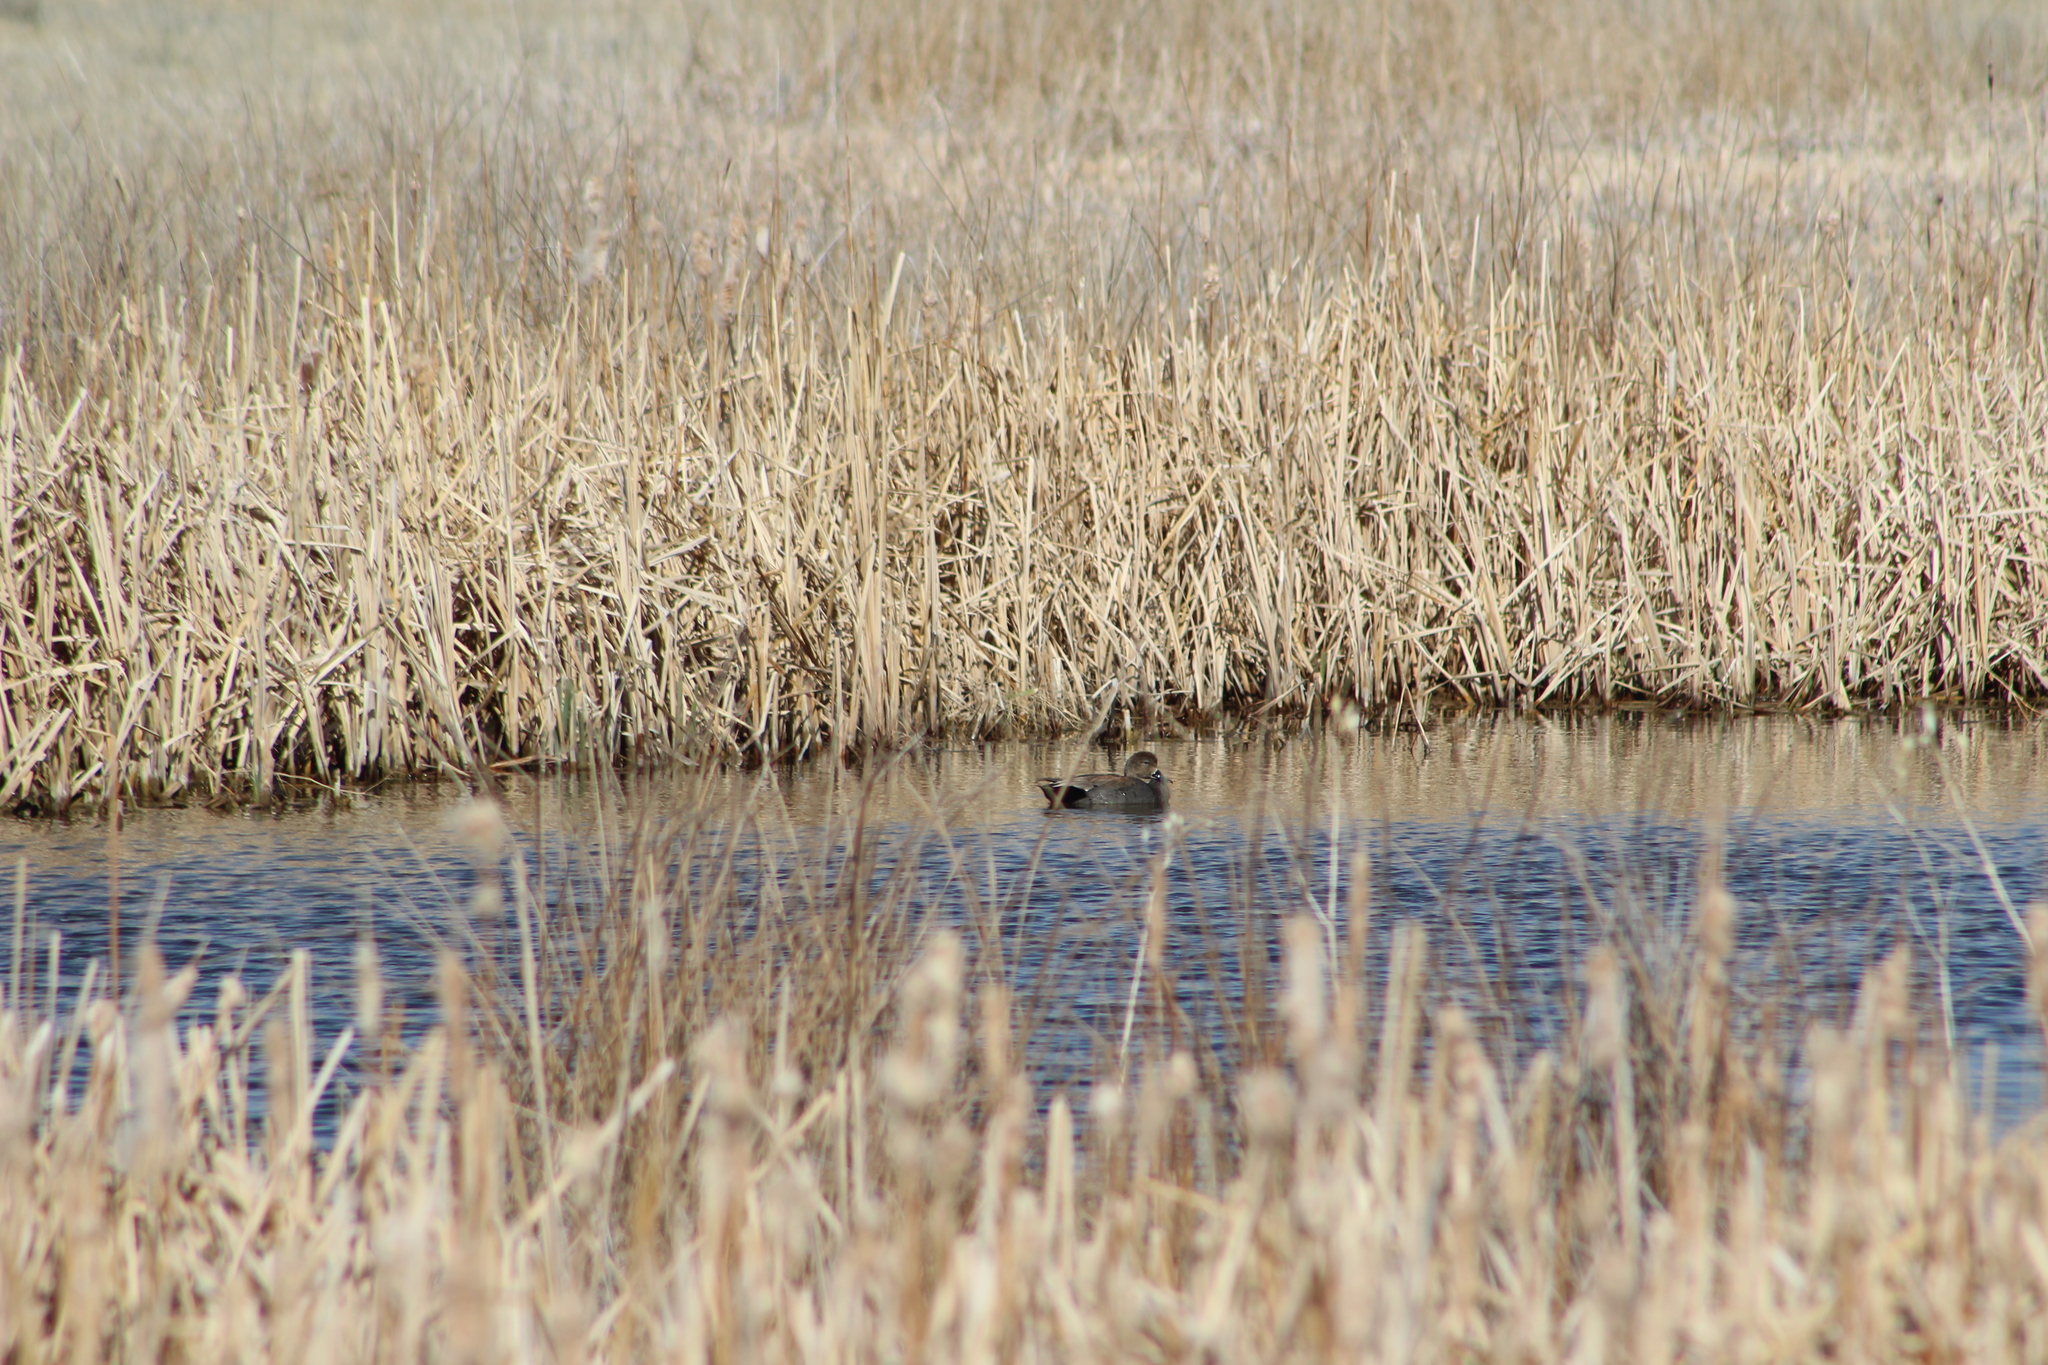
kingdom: Animalia
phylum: Chordata
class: Aves
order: Anseriformes
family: Anatidae
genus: Mareca
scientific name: Mareca strepera
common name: Gadwall
